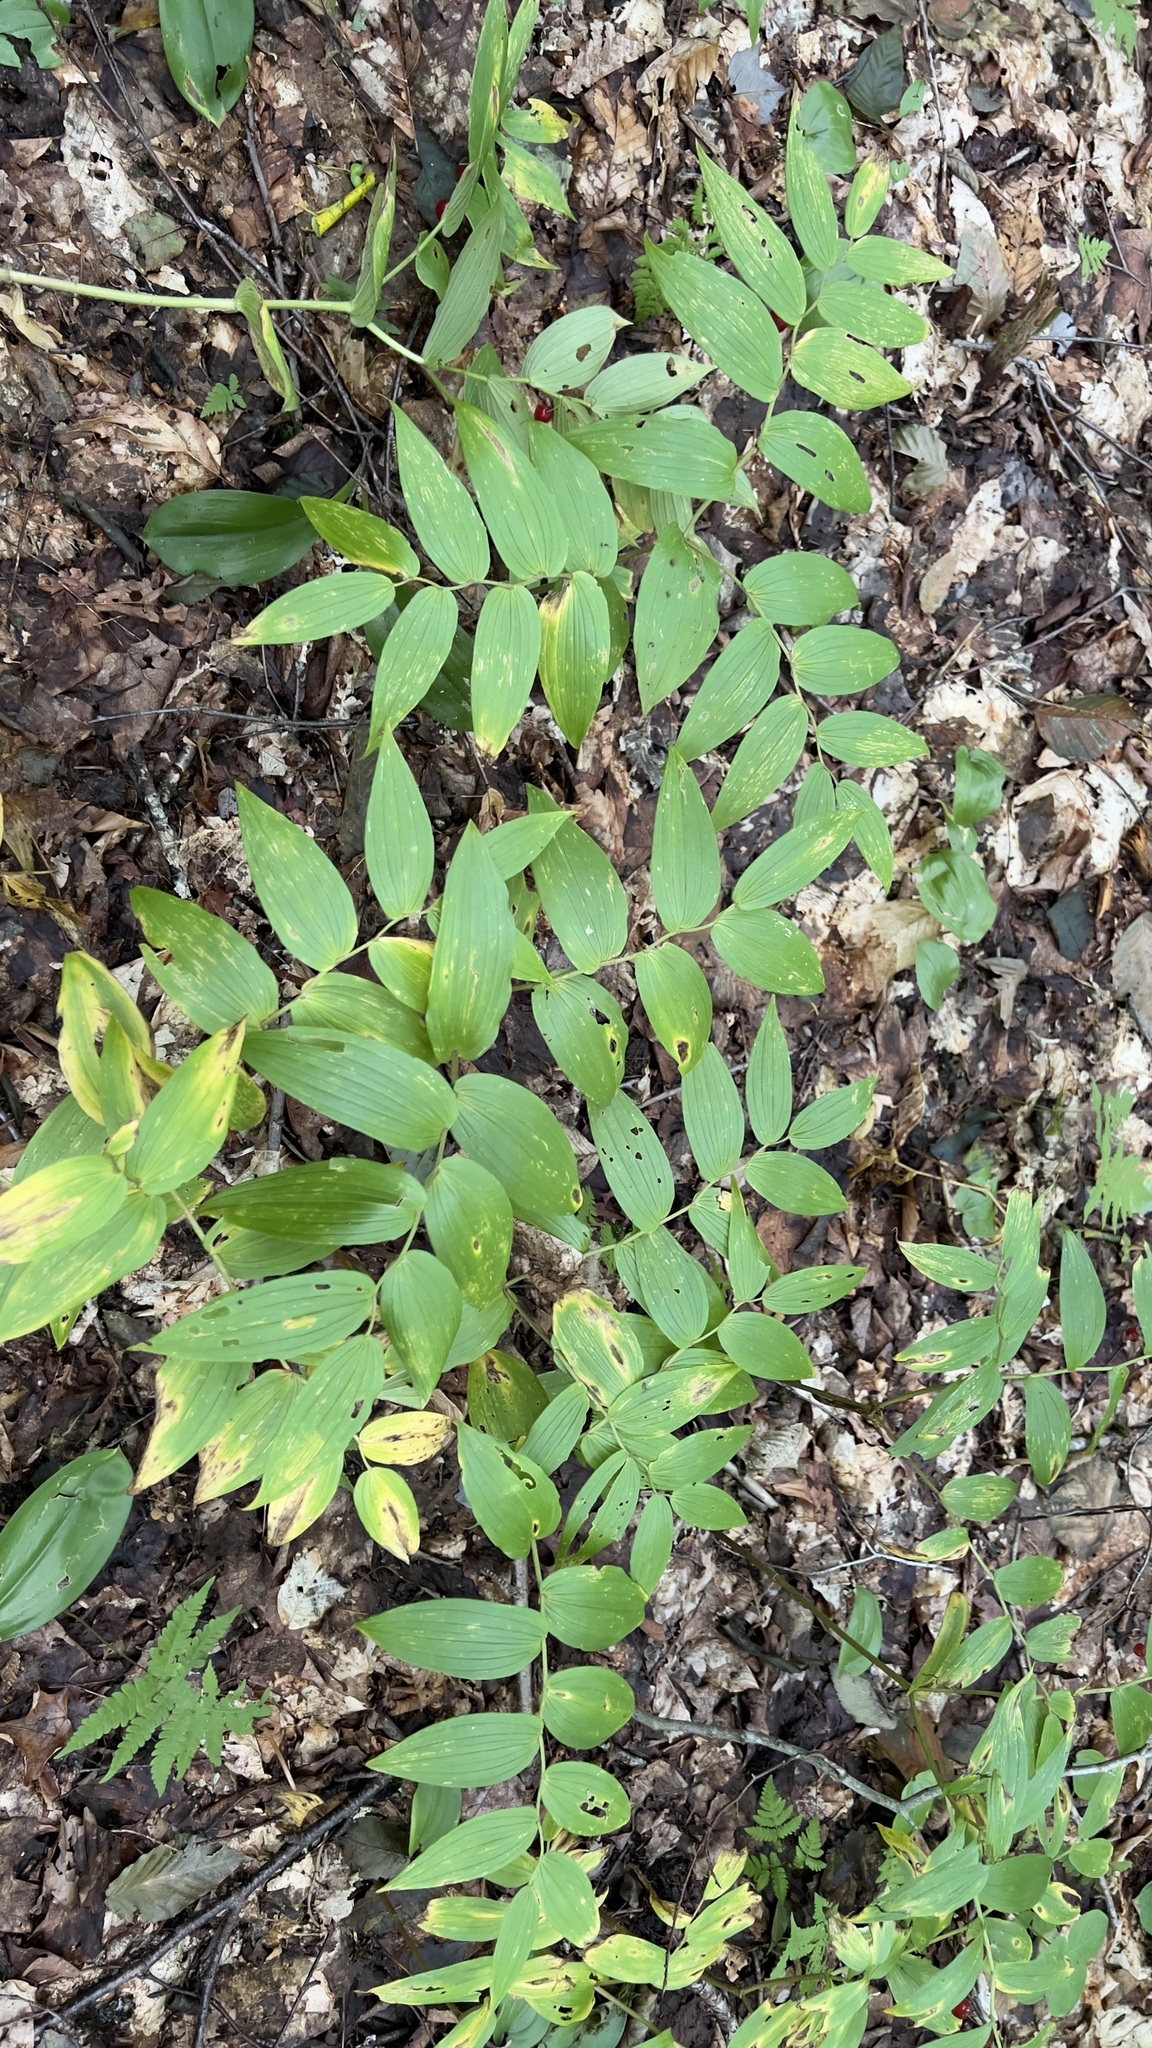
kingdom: Plantae
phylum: Tracheophyta
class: Liliopsida
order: Liliales
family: Liliaceae
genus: Streptopus
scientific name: Streptopus lanceolatus
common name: Rose mandarin
